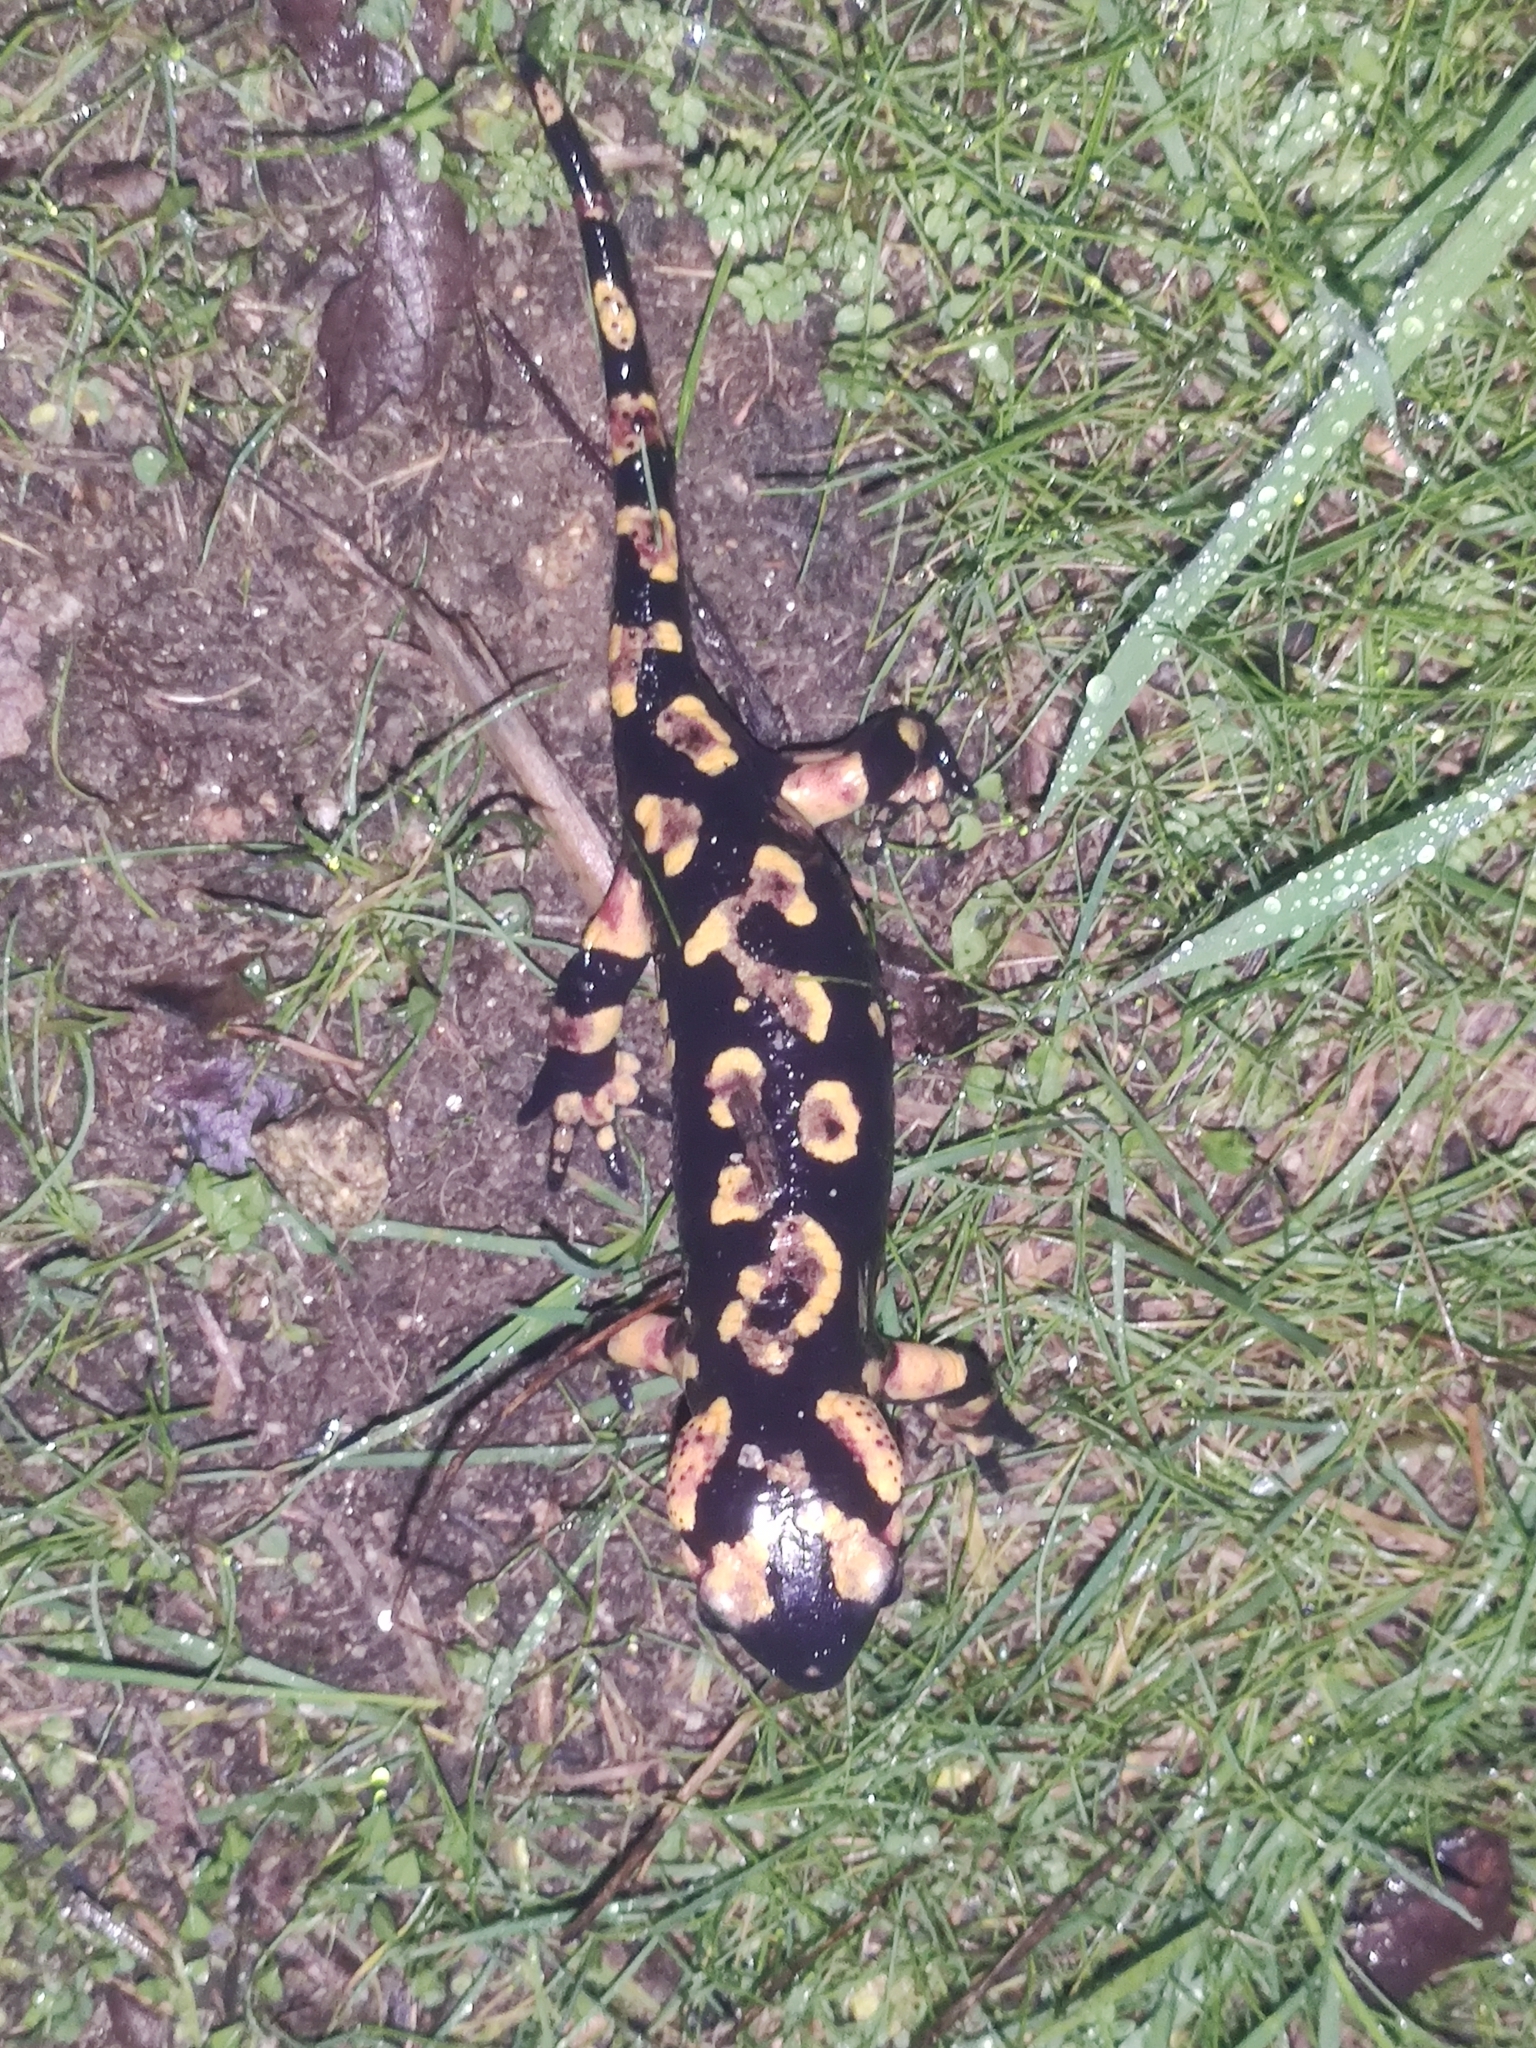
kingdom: Animalia
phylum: Chordata
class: Amphibia
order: Caudata
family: Salamandridae
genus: Salamandra
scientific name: Salamandra salamandra
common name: Fire salamander
